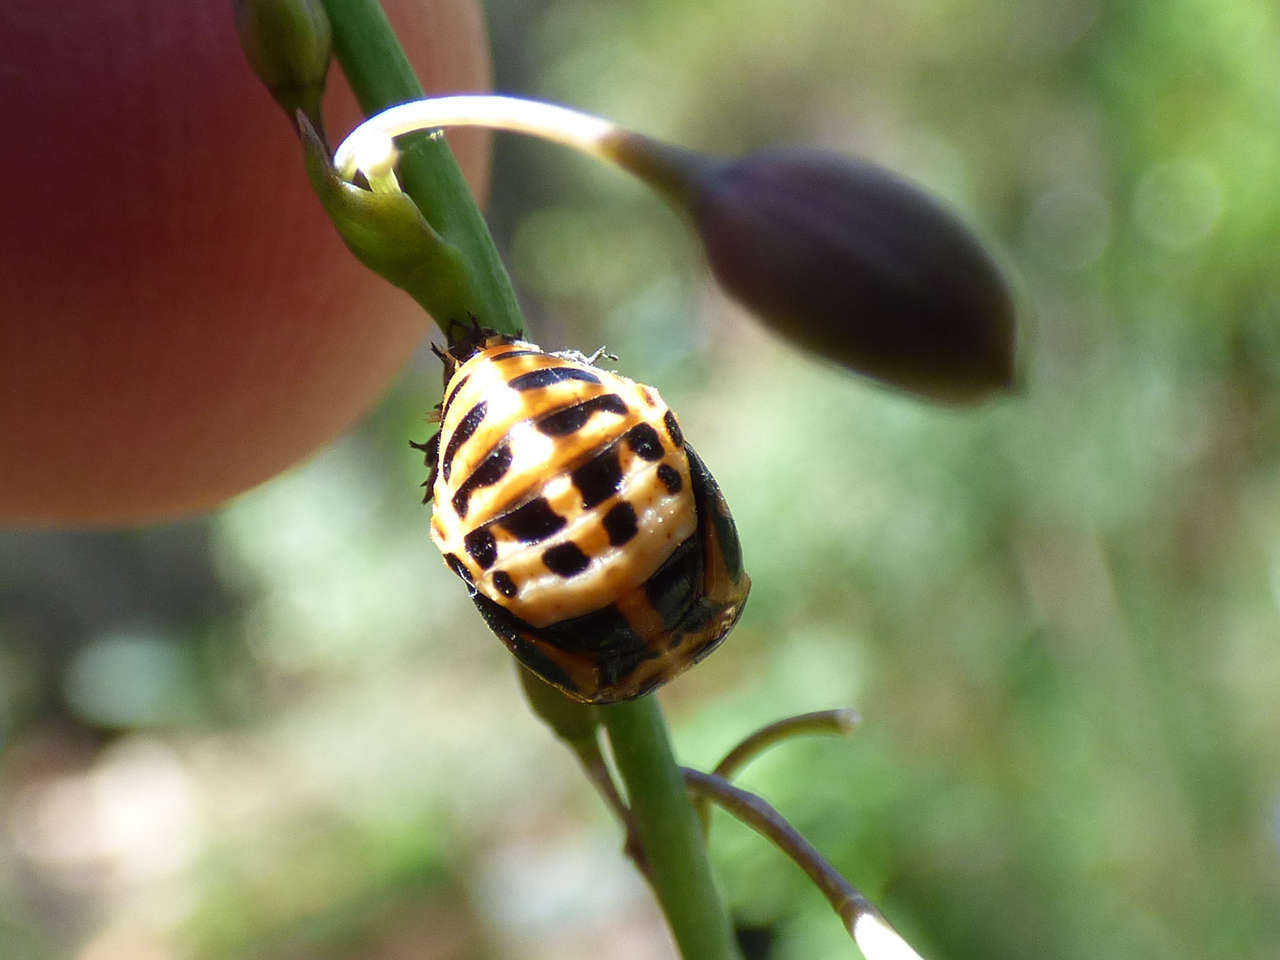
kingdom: Animalia
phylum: Arthropoda
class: Insecta
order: Coleoptera
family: Coccinellidae
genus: Harmonia
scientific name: Harmonia conformis
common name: Common spotted ladybird beetle
